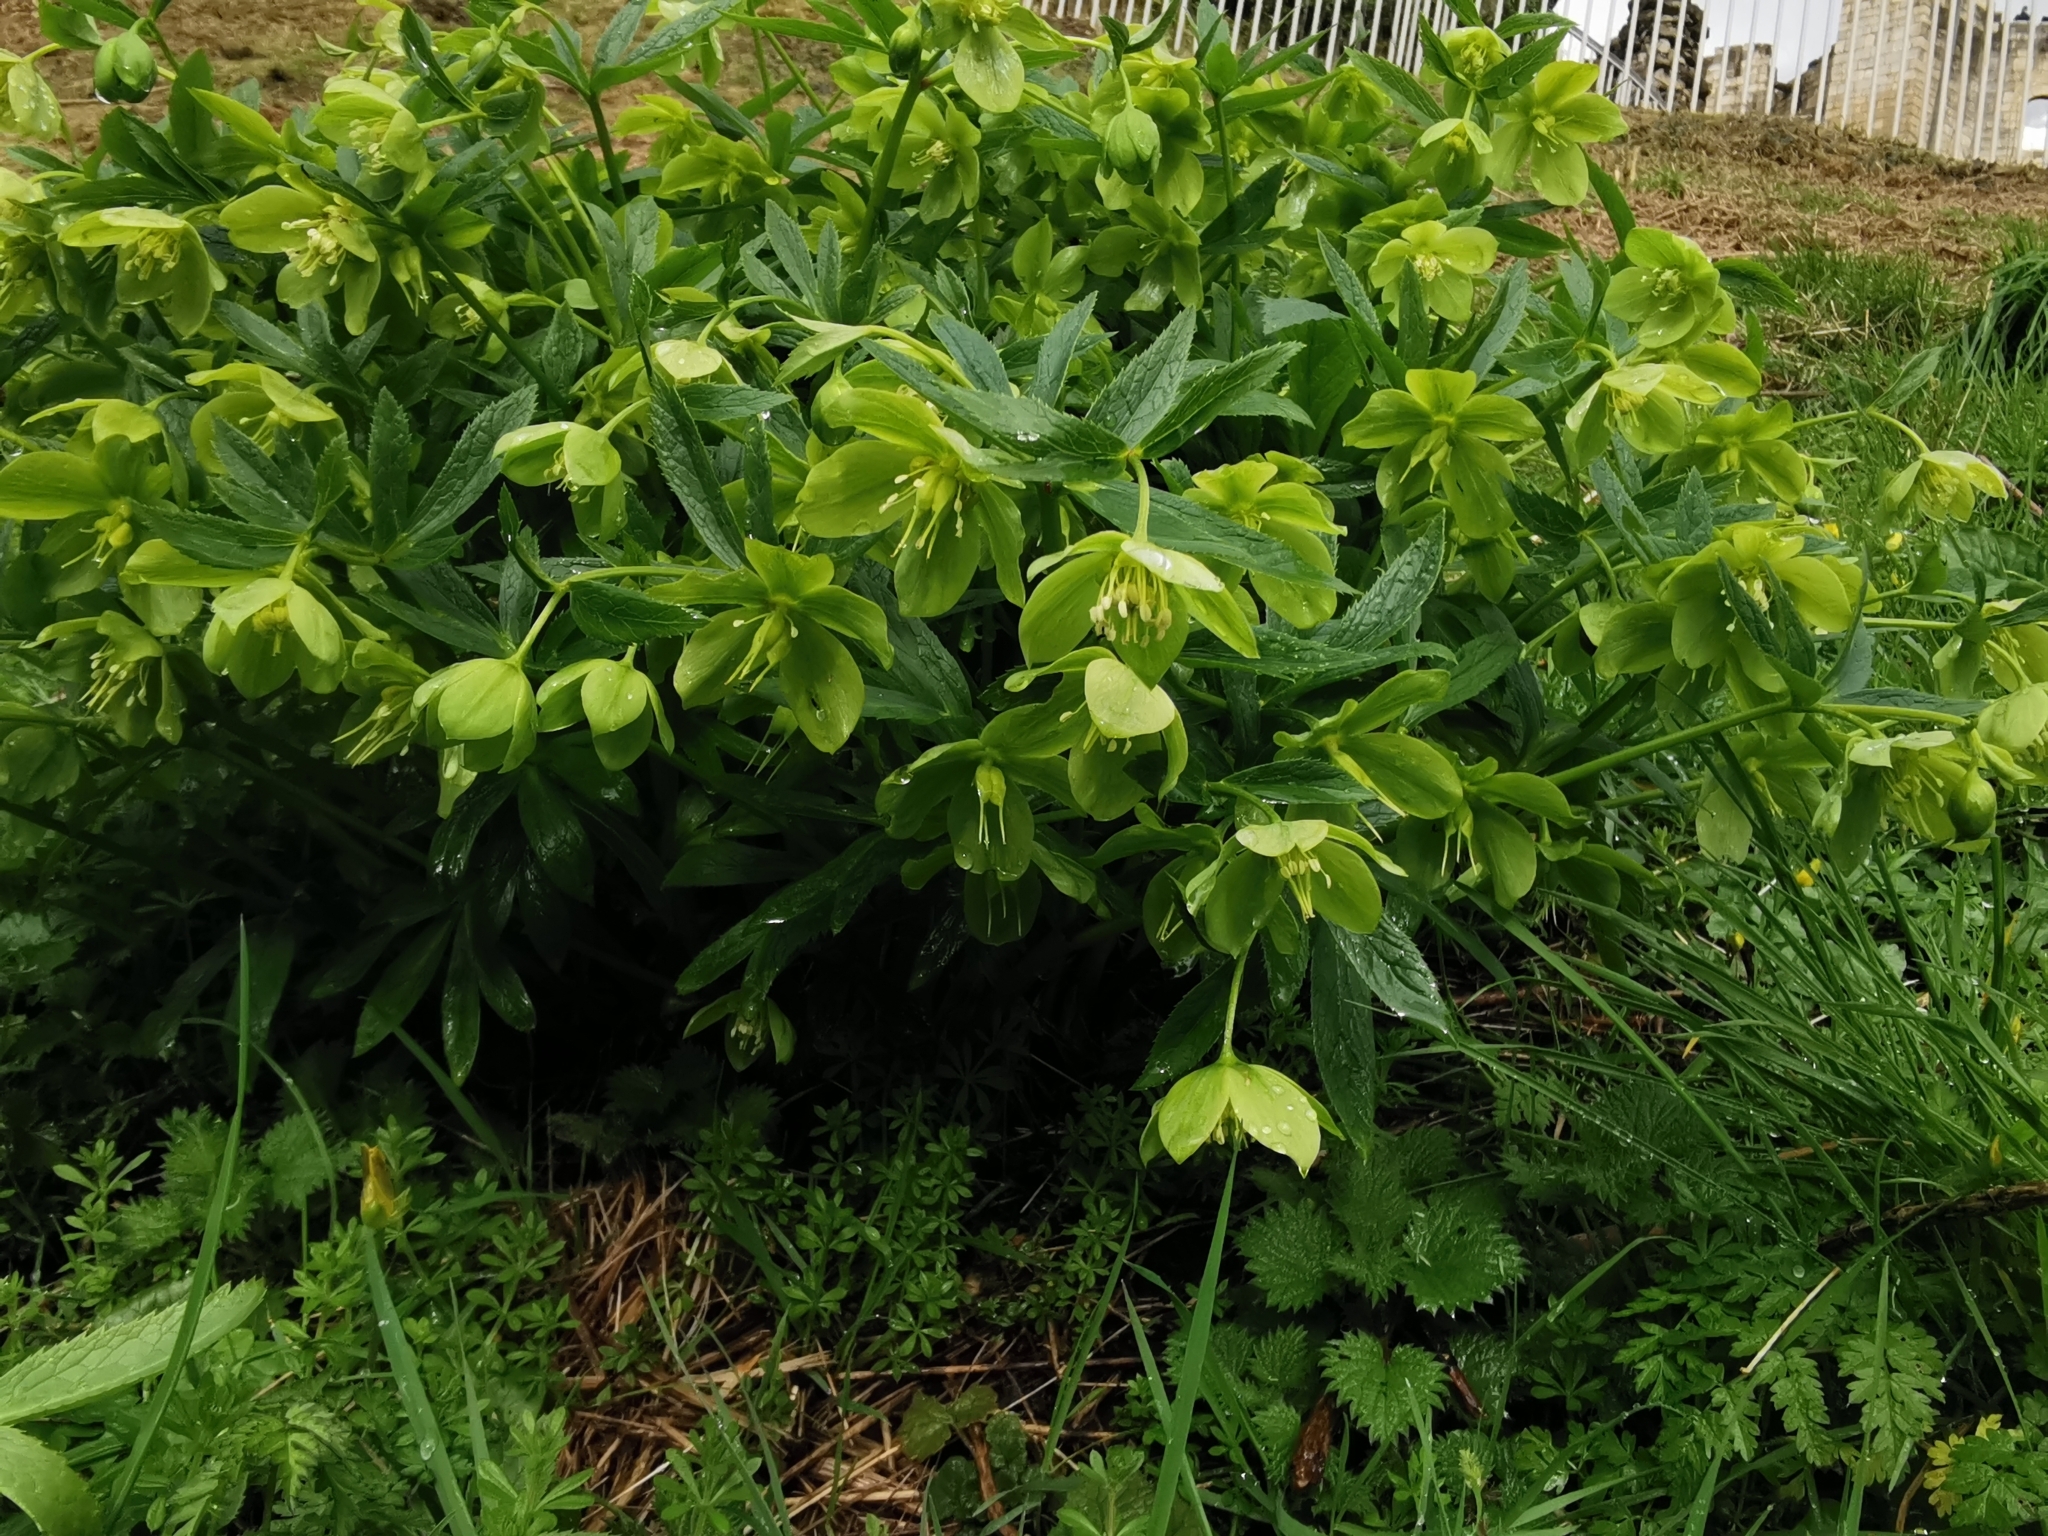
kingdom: Plantae
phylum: Tracheophyta
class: Magnoliopsida
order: Ranunculales
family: Ranunculaceae
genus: Helleborus
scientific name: Helleborus viridis
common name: Green hellebore
